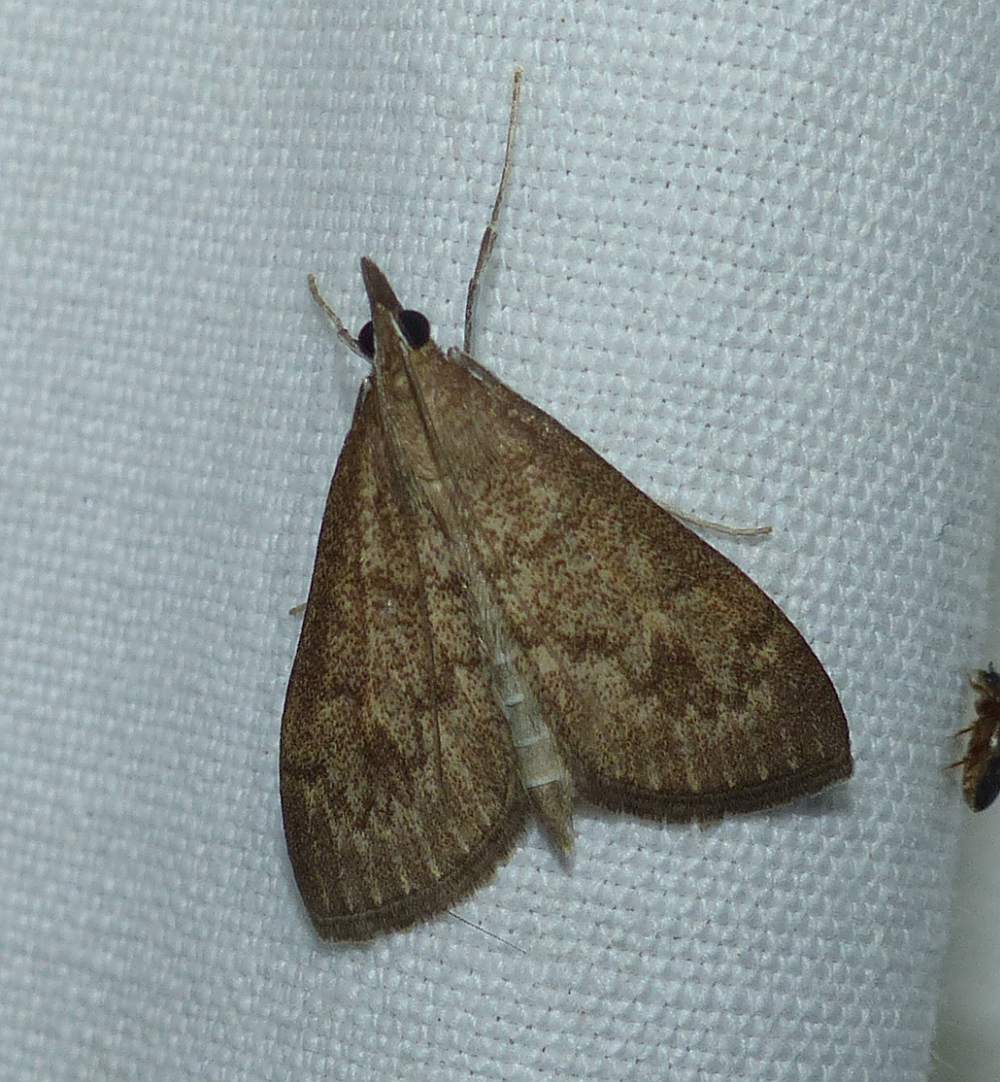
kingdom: Animalia
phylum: Arthropoda
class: Insecta
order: Lepidoptera
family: Crambidae
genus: Saucrobotys
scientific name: Saucrobotys futilalis
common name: Dogbane saucrobotys moth
